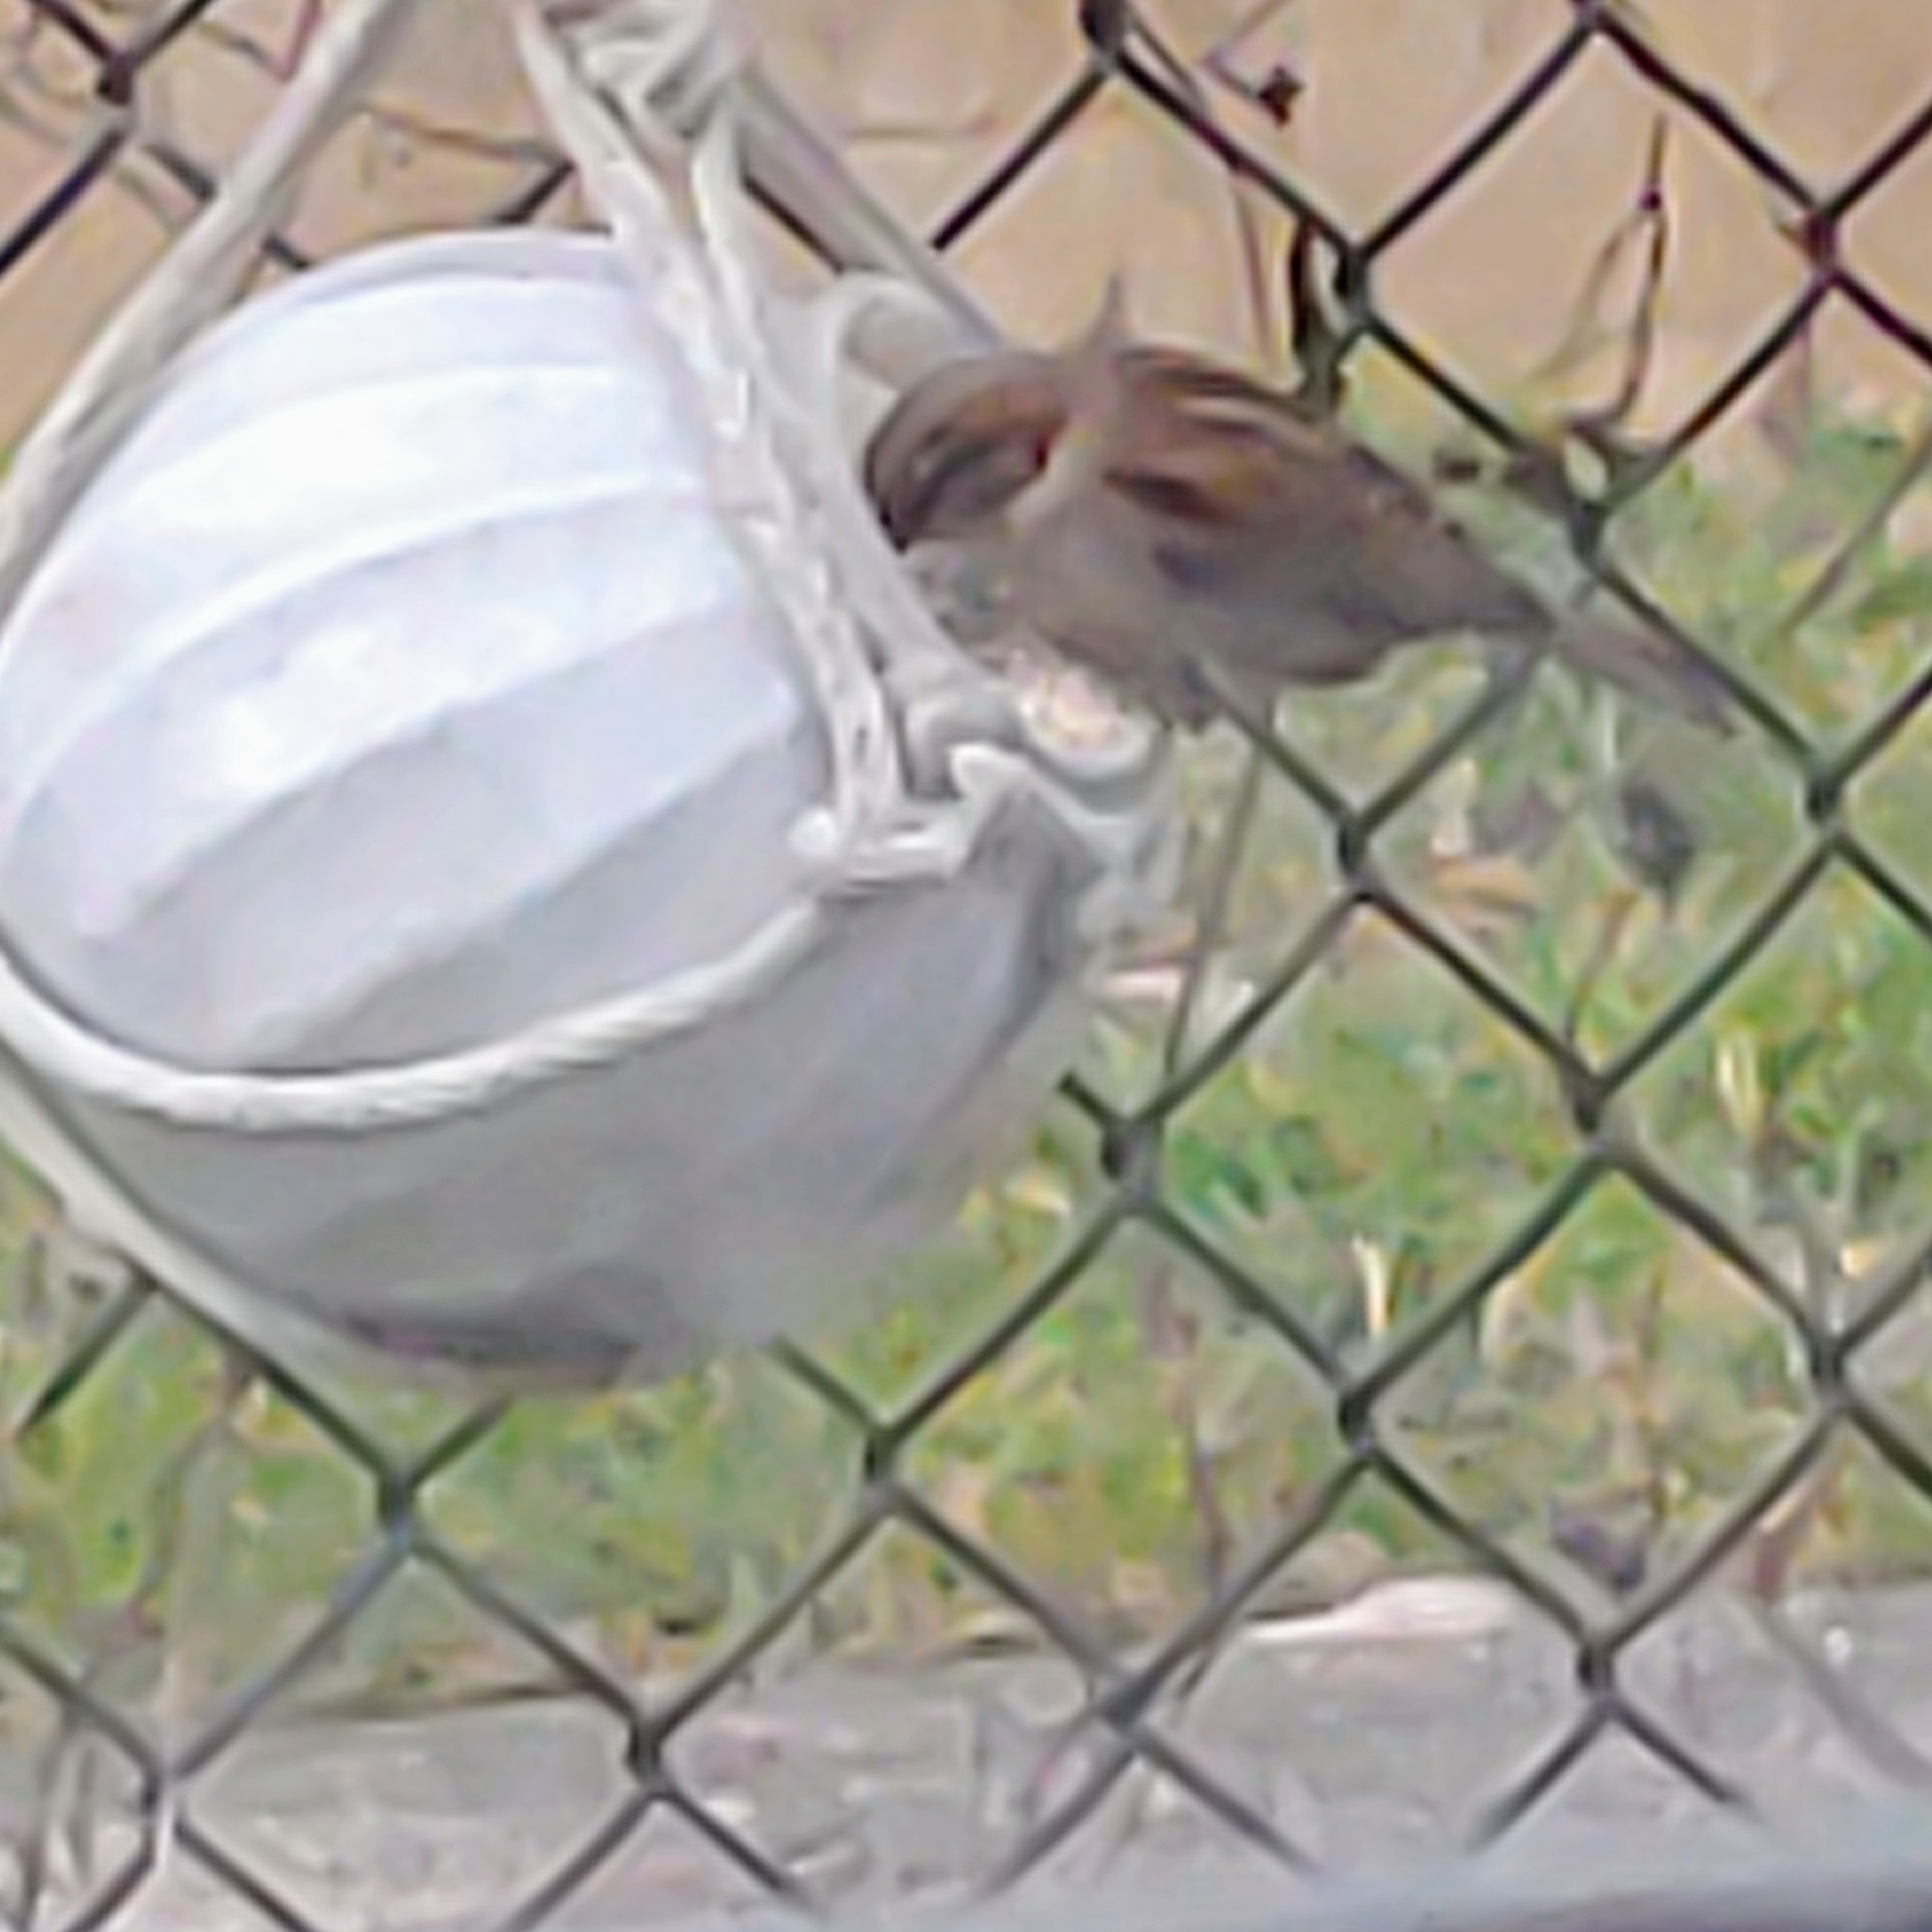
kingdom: Animalia
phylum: Chordata
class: Aves
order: Passeriformes
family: Passeridae
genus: Passer
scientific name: Passer domesticus
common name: House sparrow
